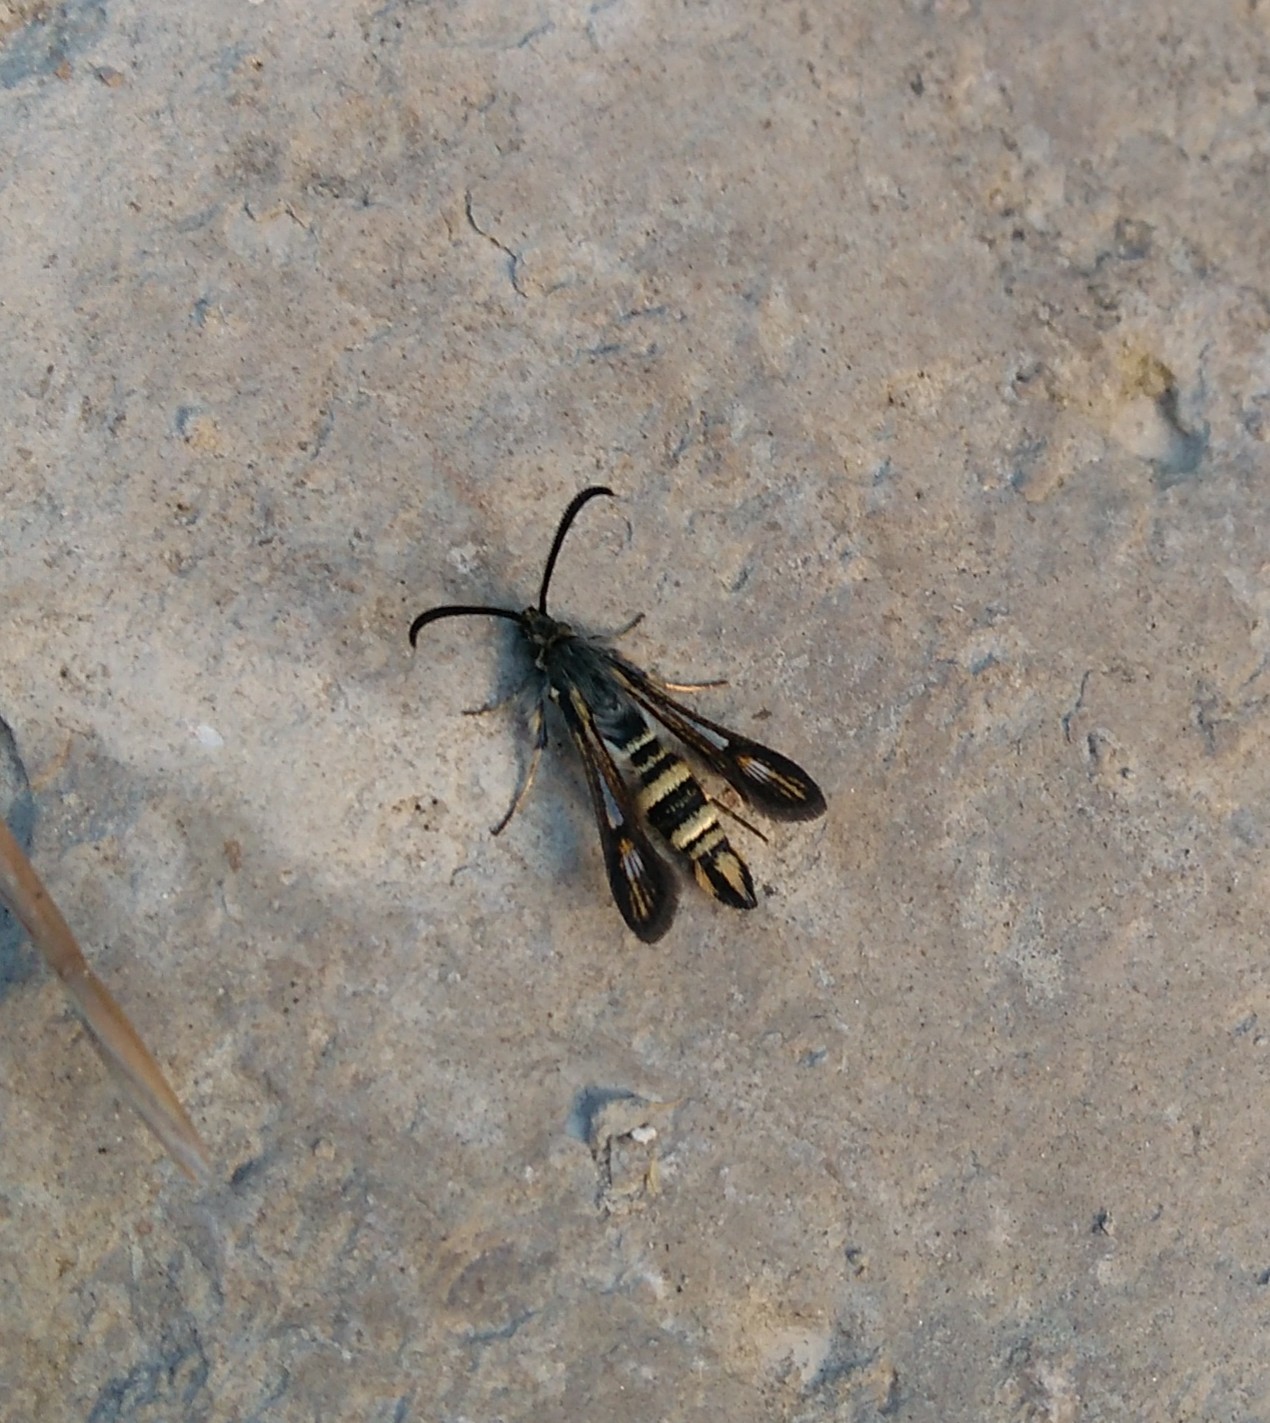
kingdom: Animalia
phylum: Arthropoda
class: Insecta
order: Lepidoptera
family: Sesiidae
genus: Bembecia
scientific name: Bembecia uroceriformis
